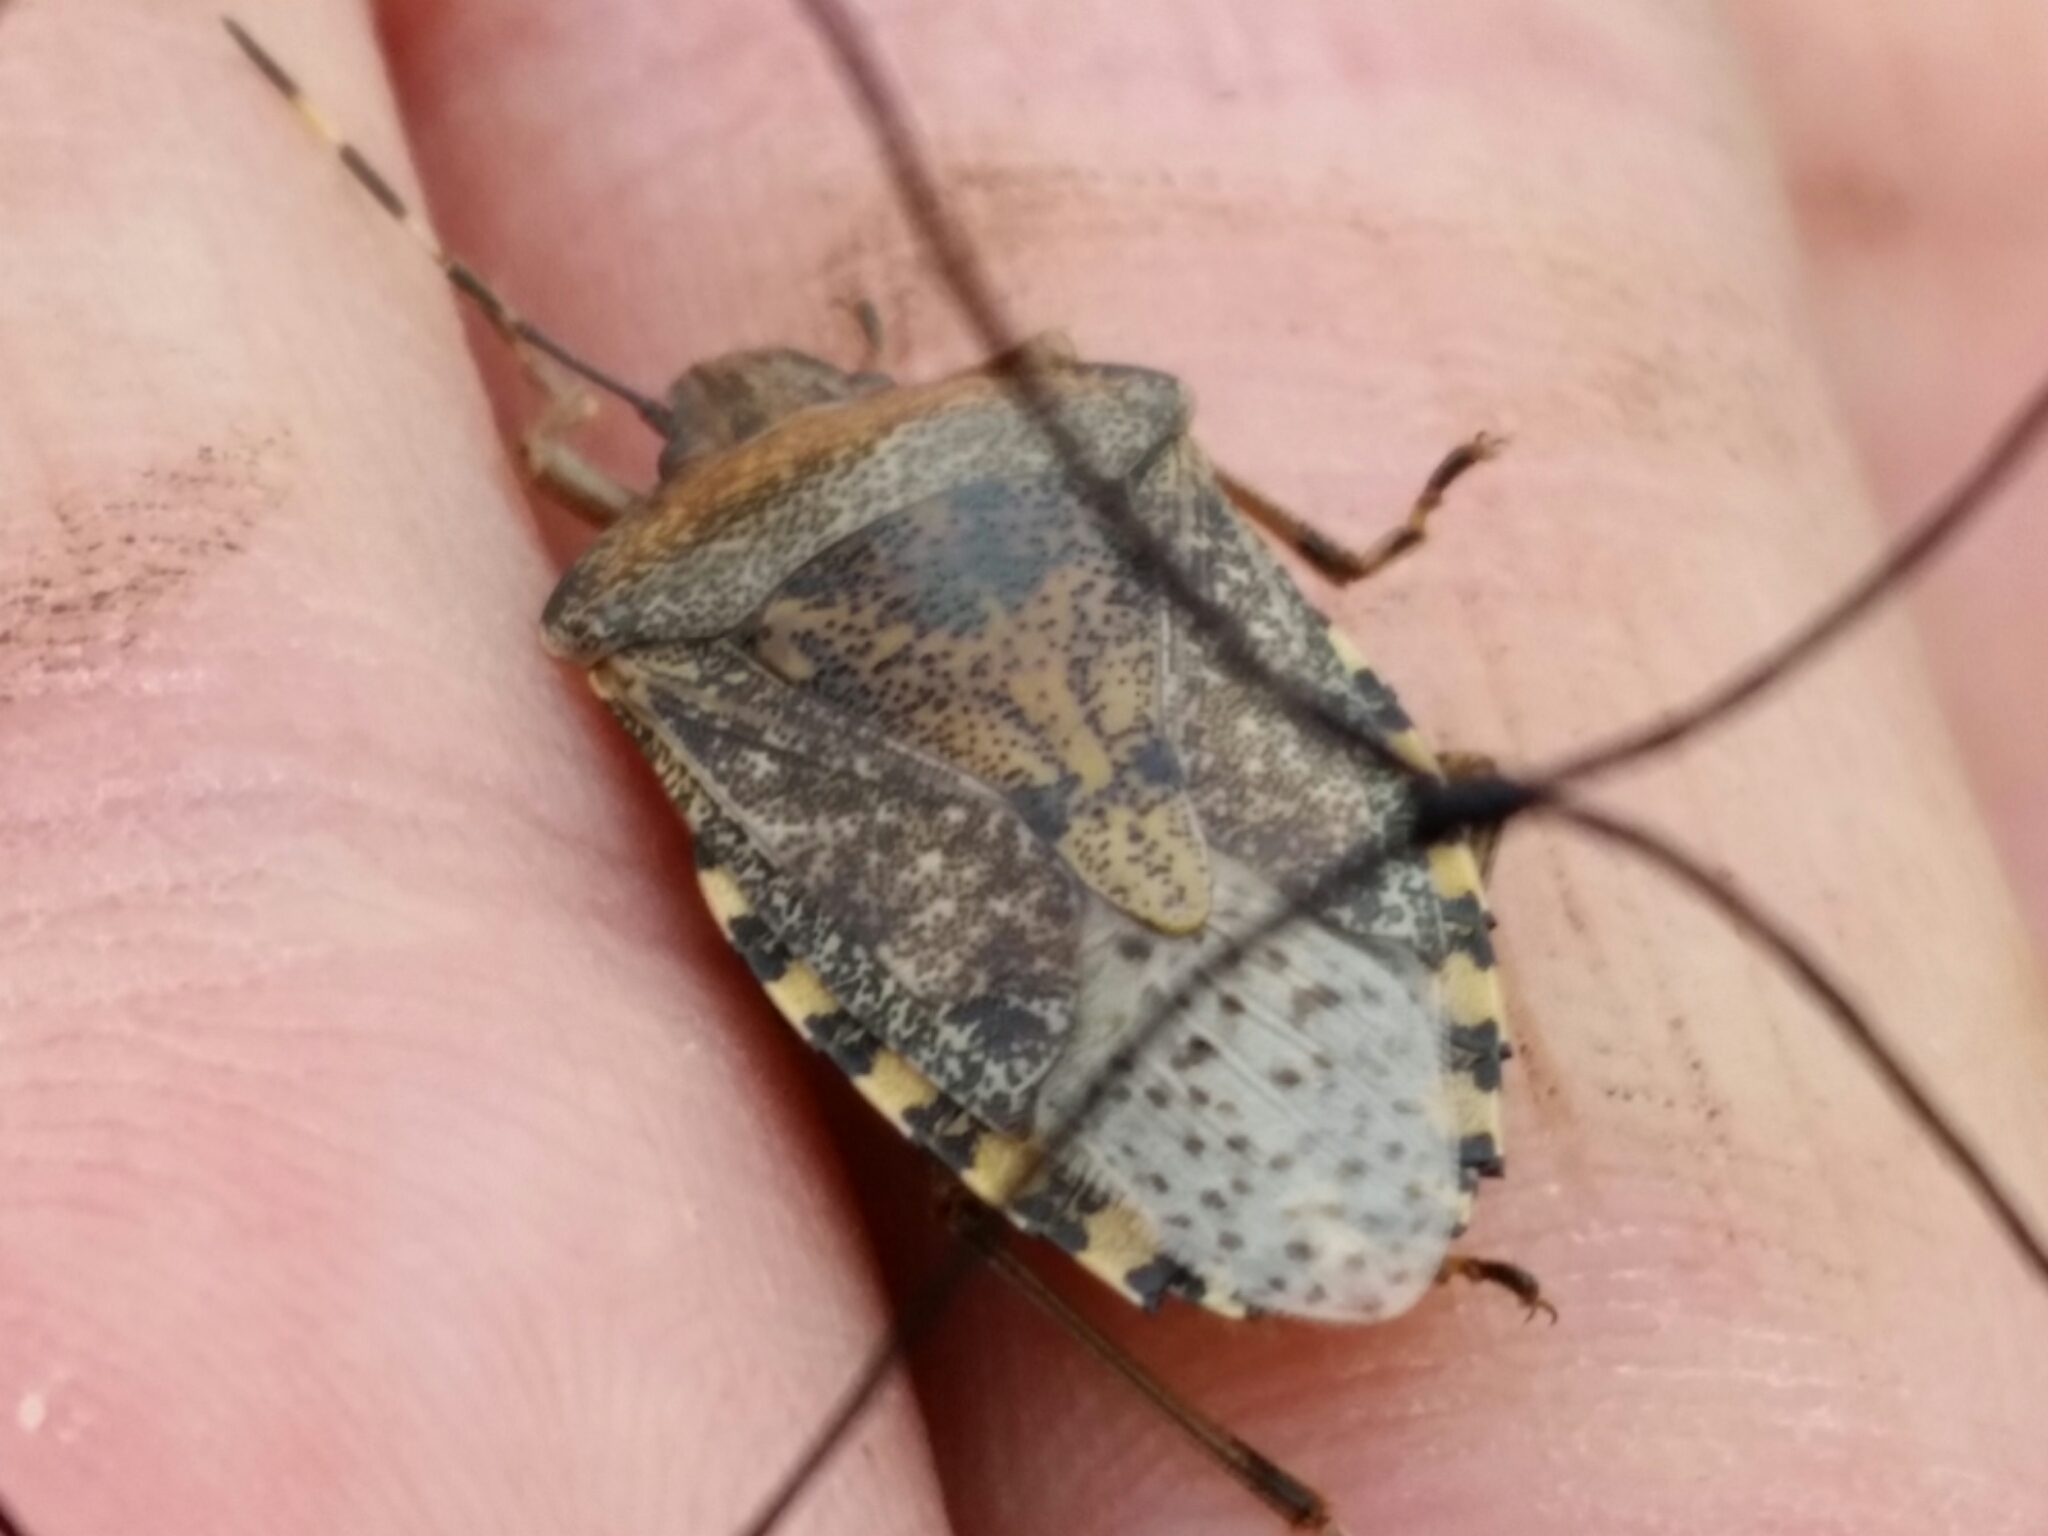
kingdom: Animalia
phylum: Arthropoda
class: Insecta
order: Hemiptera
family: Pentatomidae
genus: Rhaphigaster
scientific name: Rhaphigaster nebulosa
